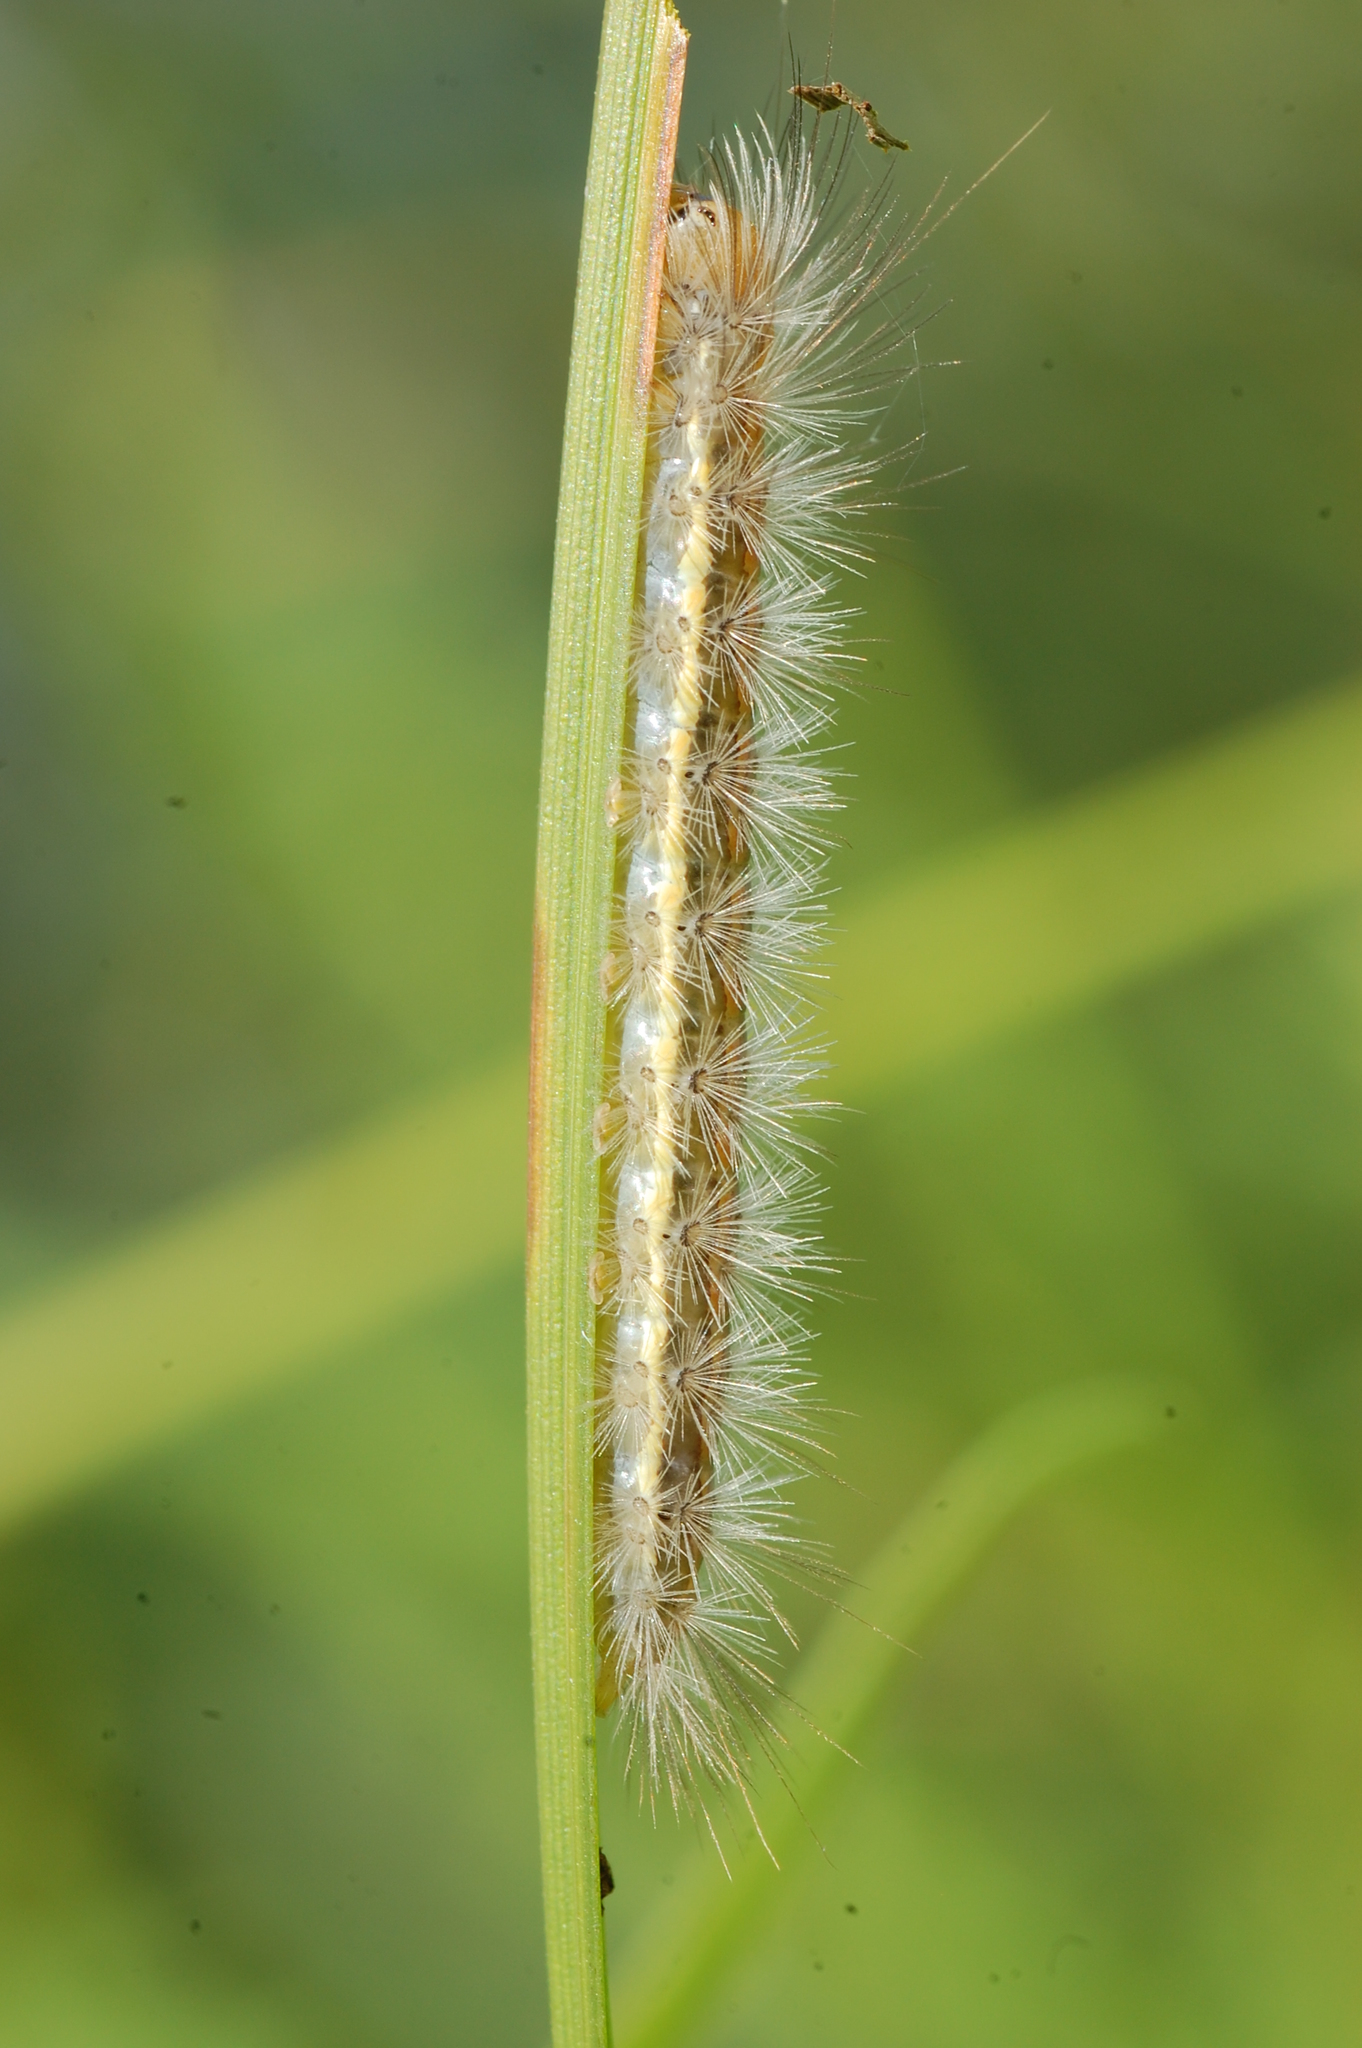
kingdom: Animalia
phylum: Arthropoda
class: Insecta
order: Lepidoptera
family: Erebidae
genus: Cisseps
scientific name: Cisseps fulvicollis
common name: Yellow-collared scape moth
